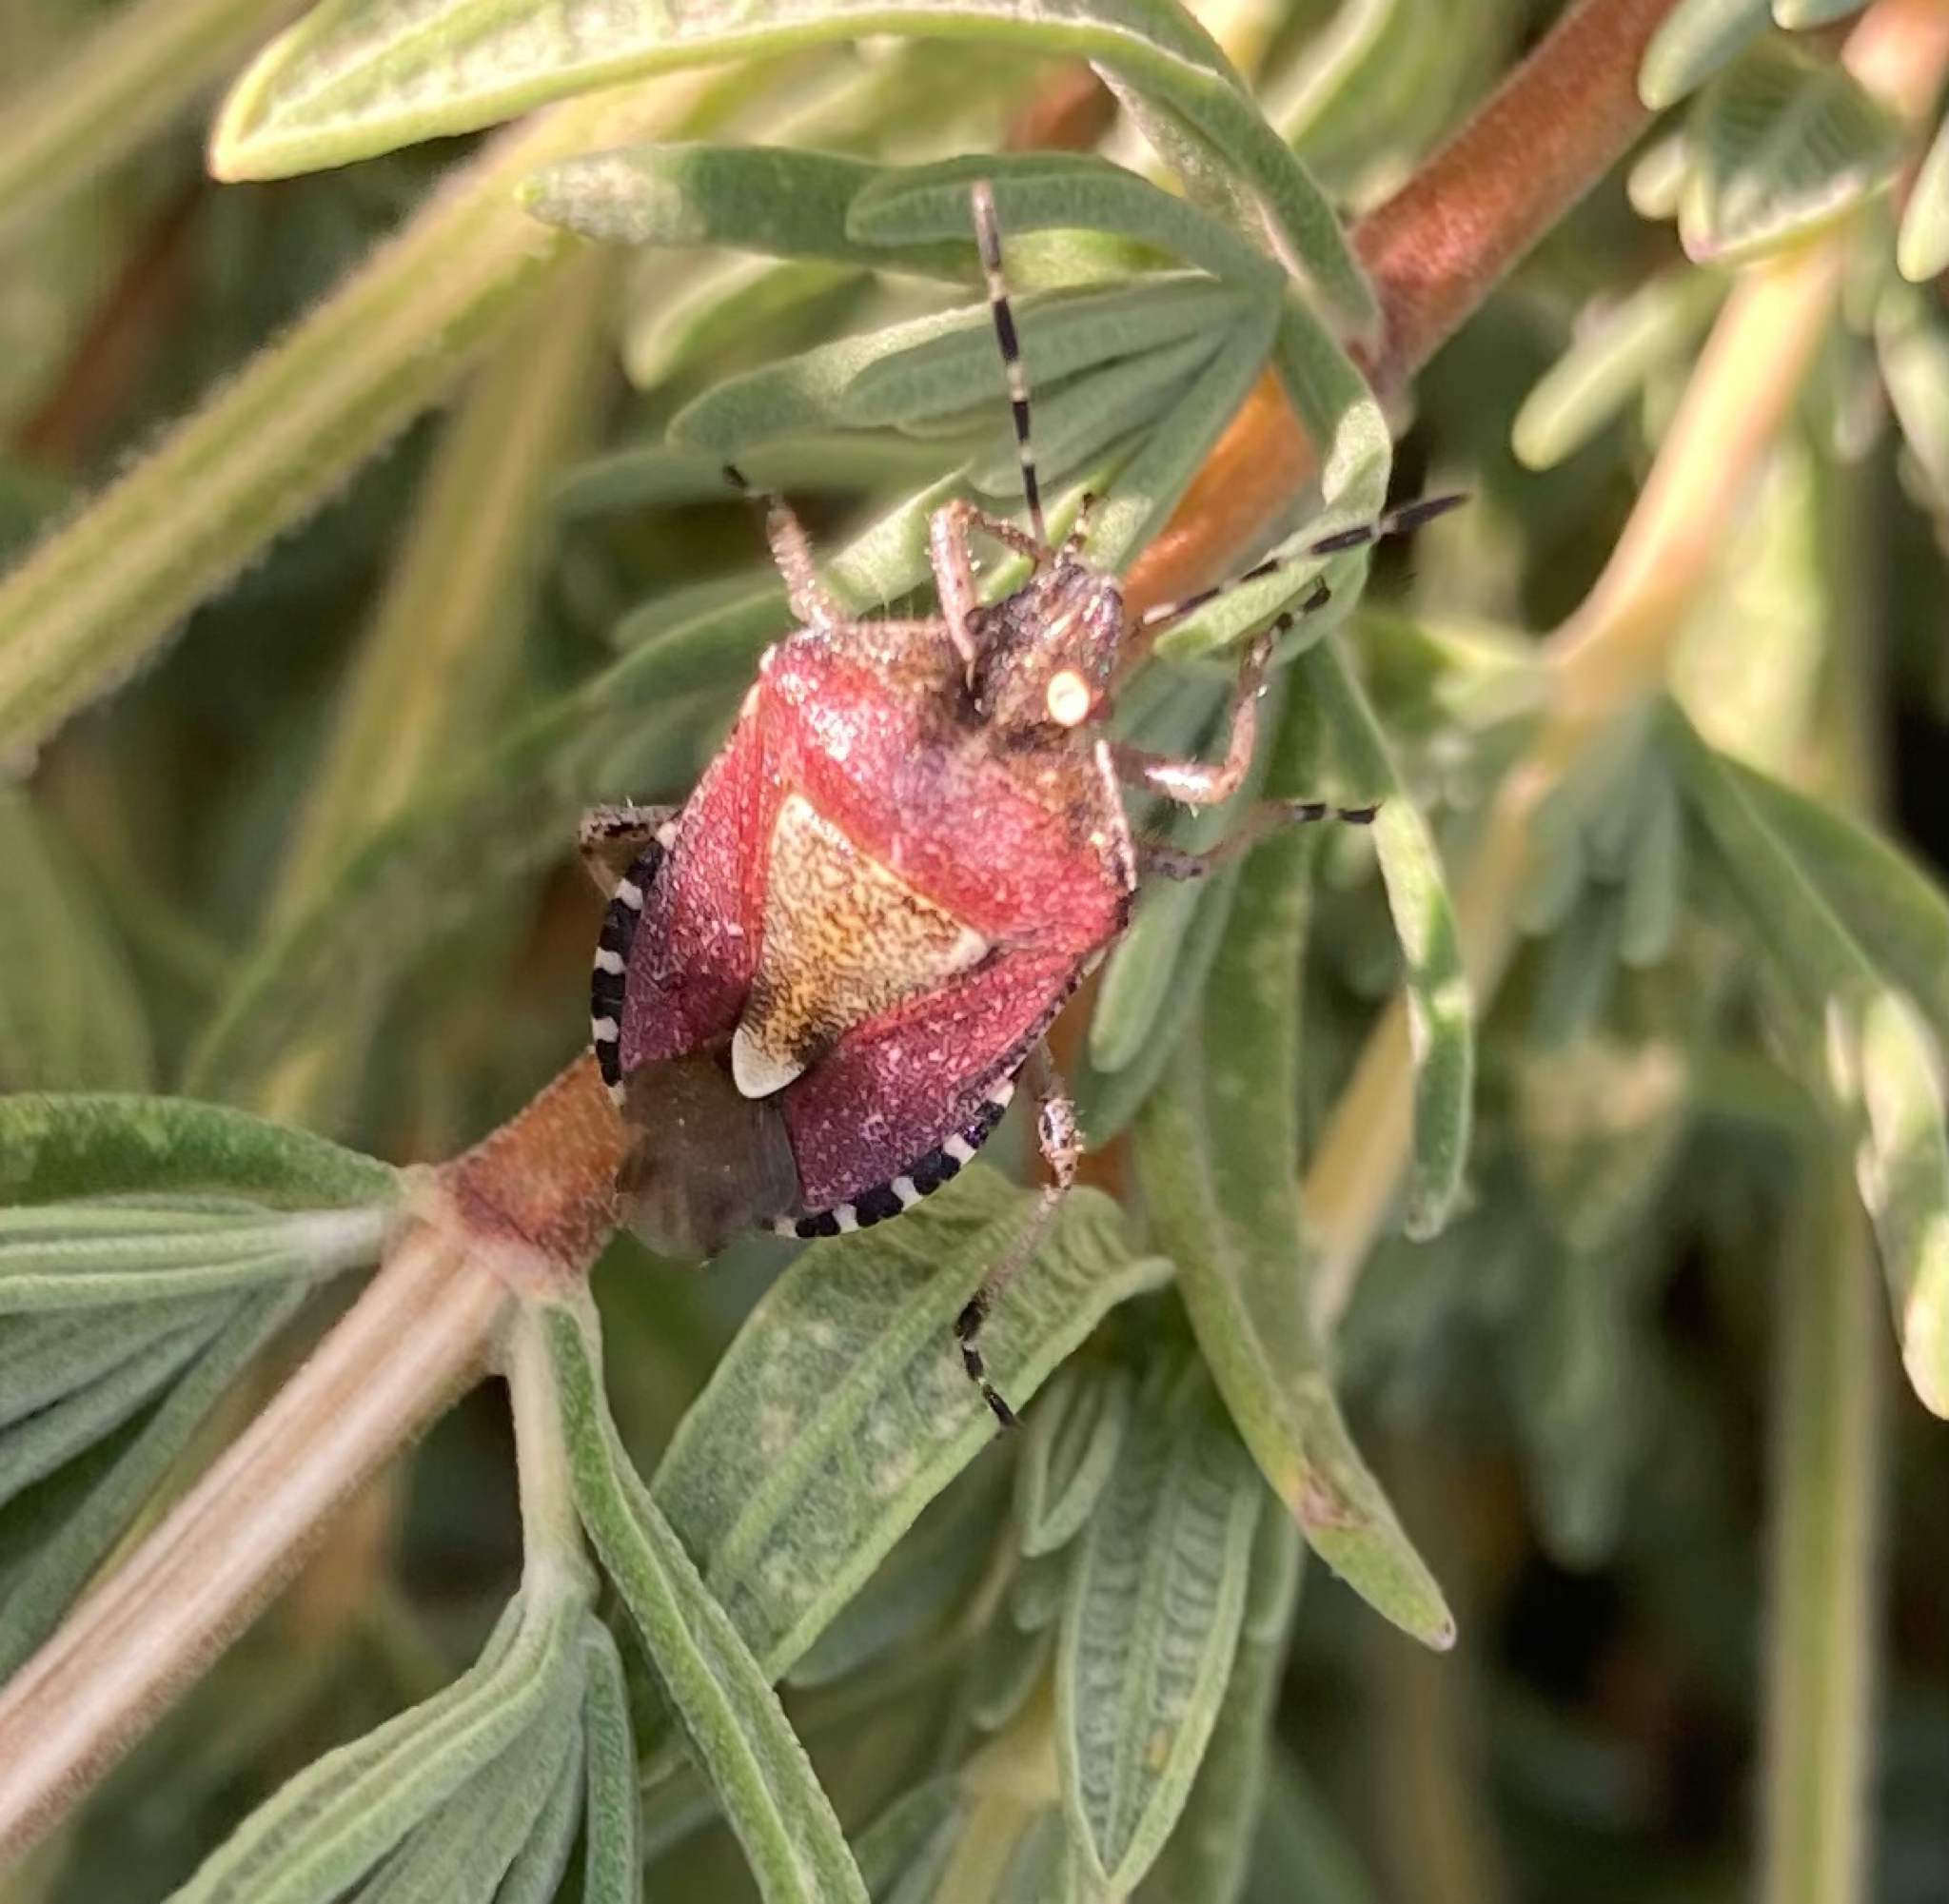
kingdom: Animalia
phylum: Arthropoda
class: Insecta
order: Hemiptera
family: Pentatomidae
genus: Dolycoris
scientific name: Dolycoris baccarum
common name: Sloe bug
